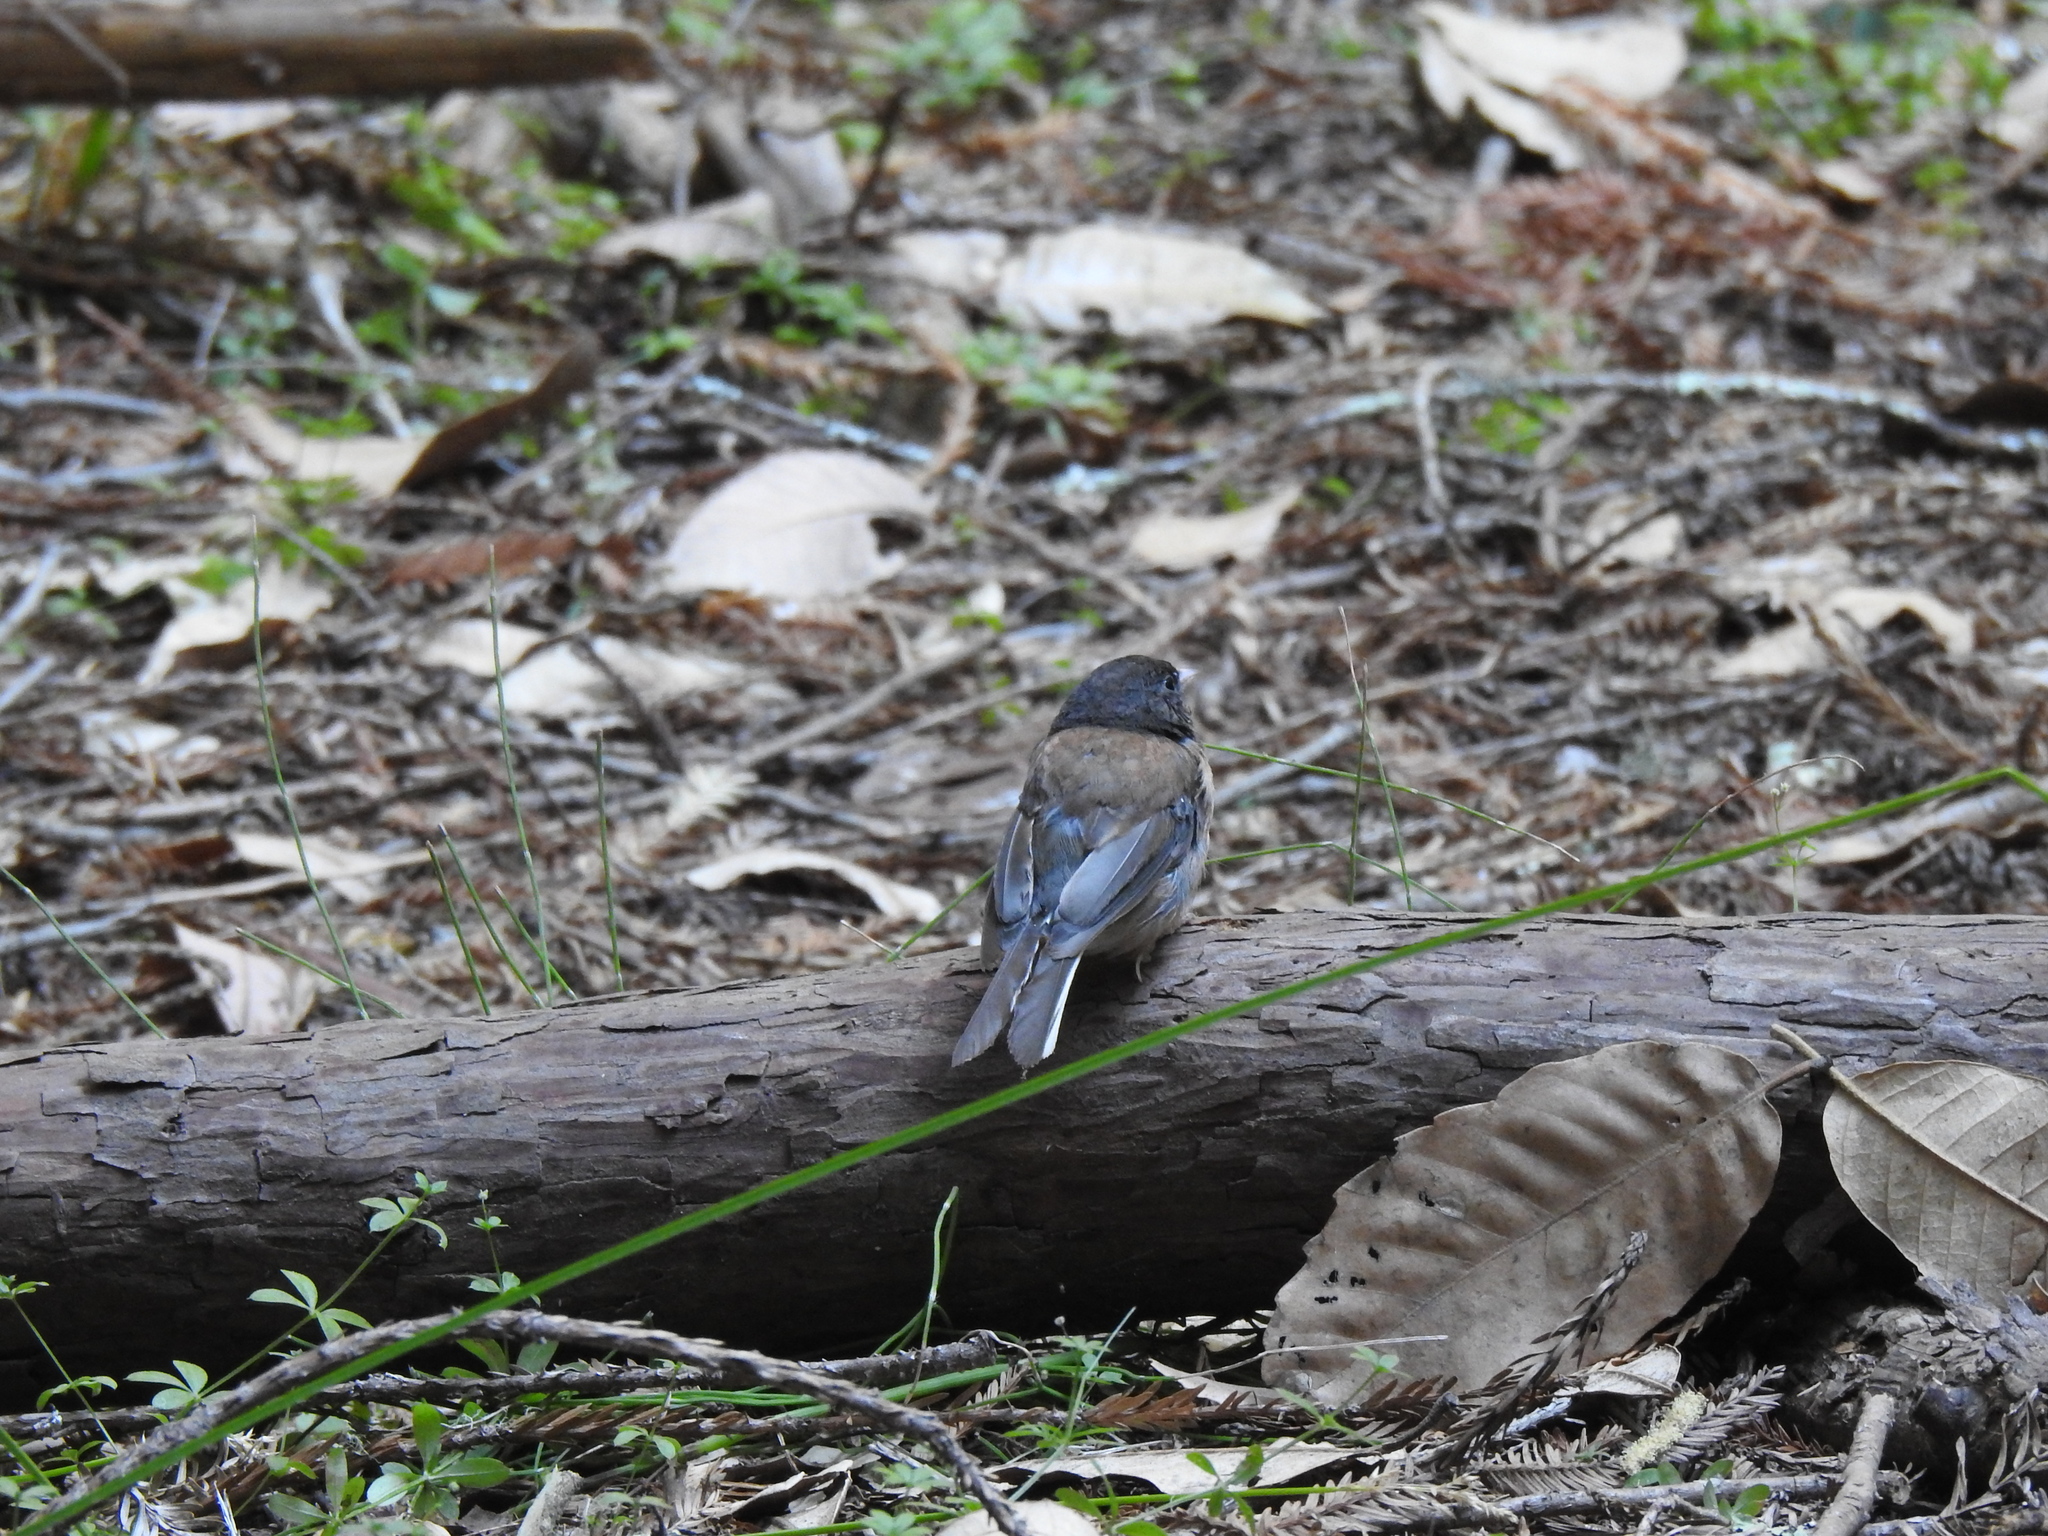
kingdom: Animalia
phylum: Chordata
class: Aves
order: Passeriformes
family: Passerellidae
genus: Junco
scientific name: Junco hyemalis
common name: Dark-eyed junco
